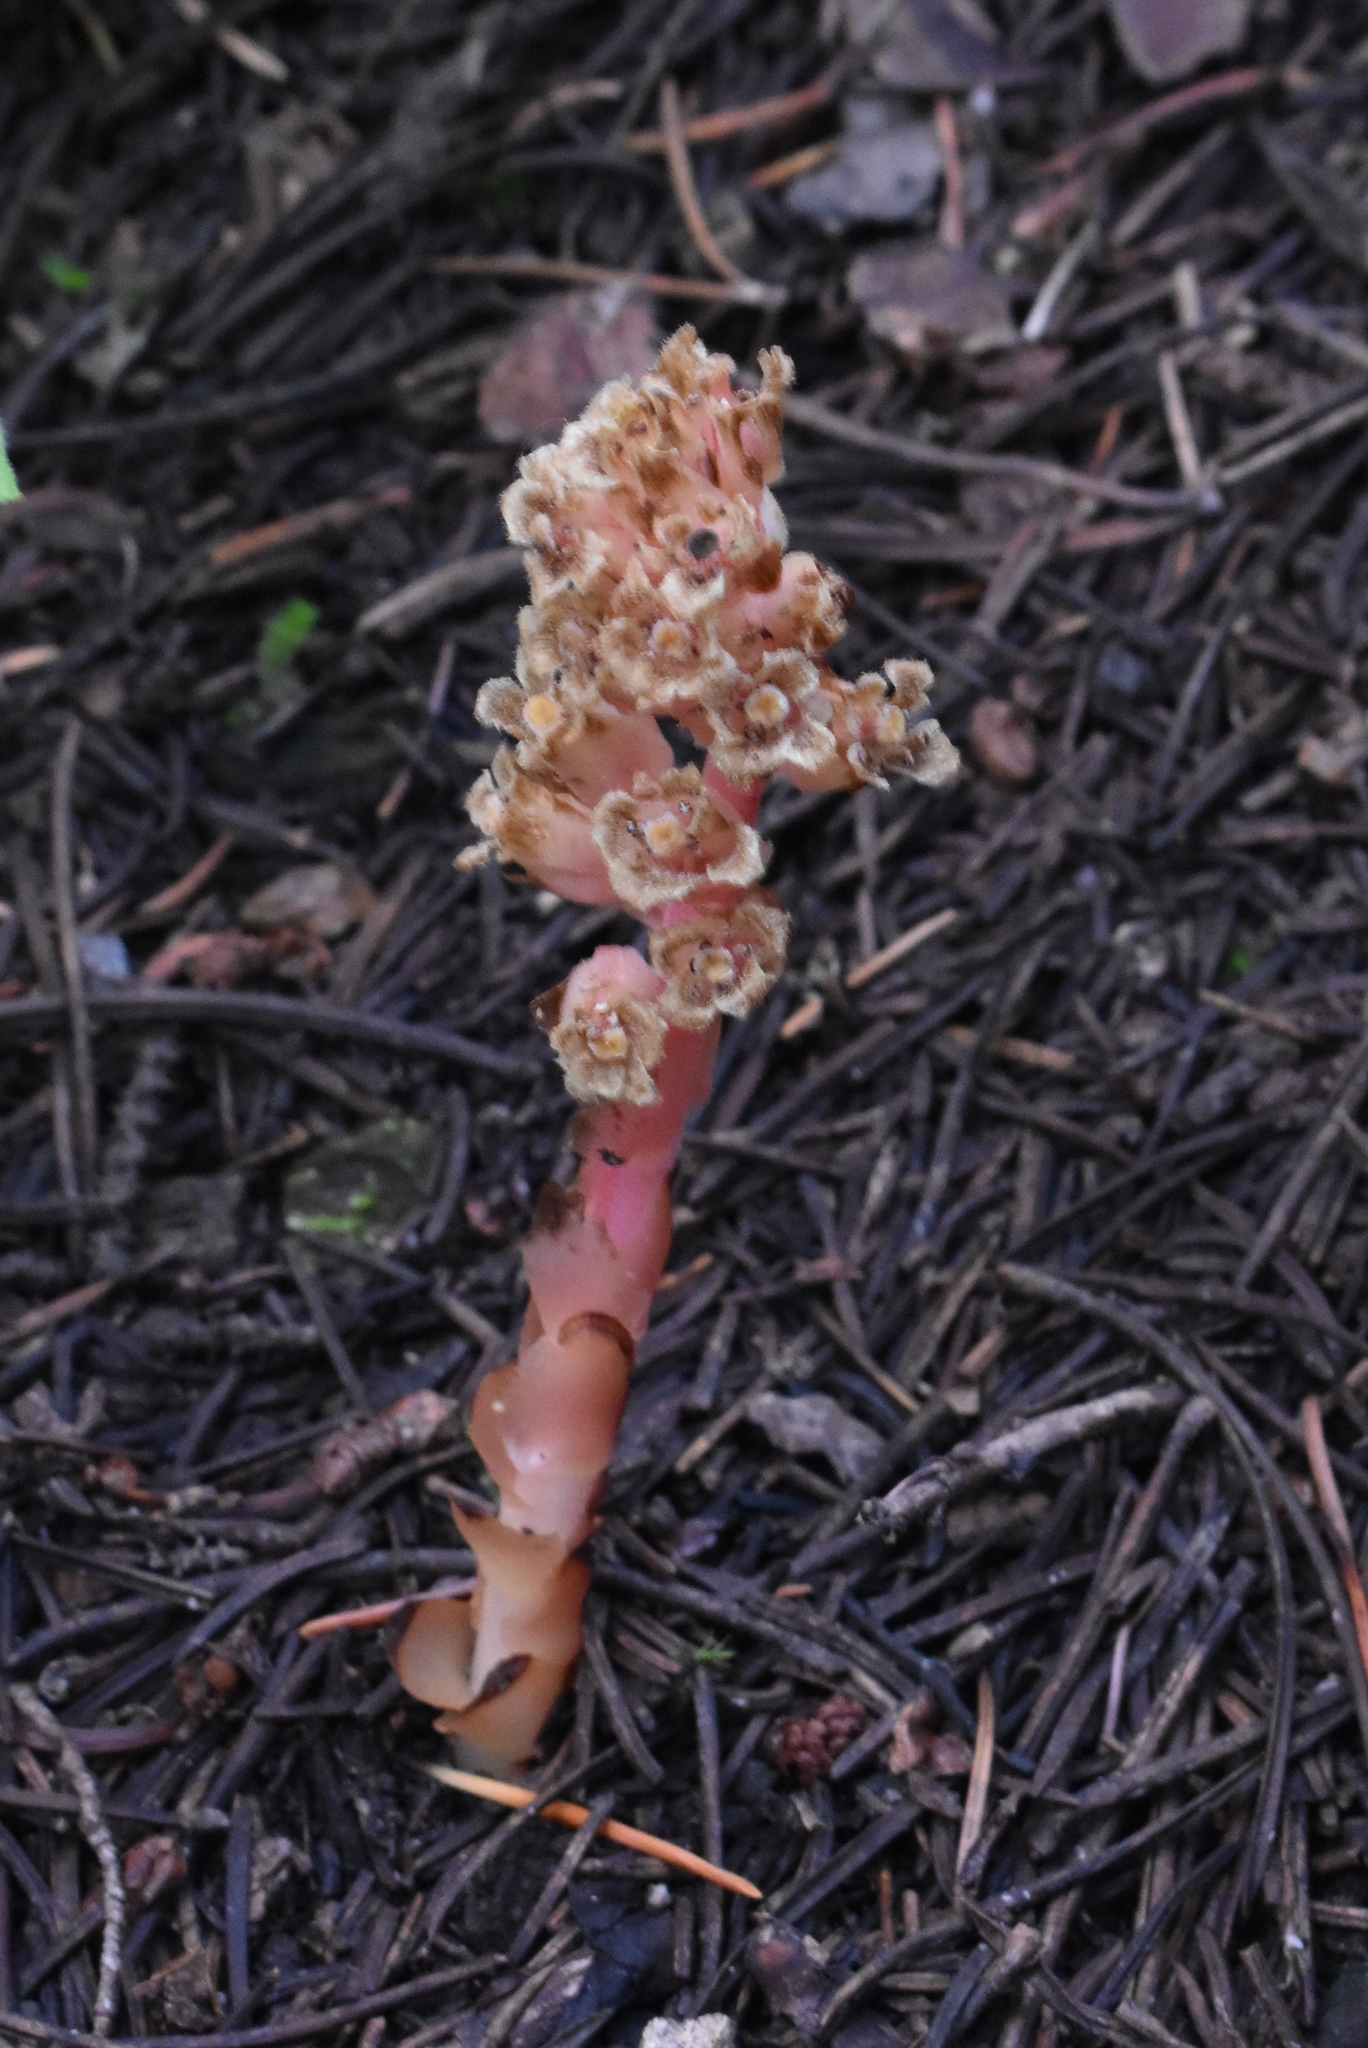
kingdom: Plantae
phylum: Tracheophyta
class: Magnoliopsida
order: Ericales
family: Ericaceae
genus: Hypopitys
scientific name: Hypopitys monotropa
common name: Yellow bird's-nest
